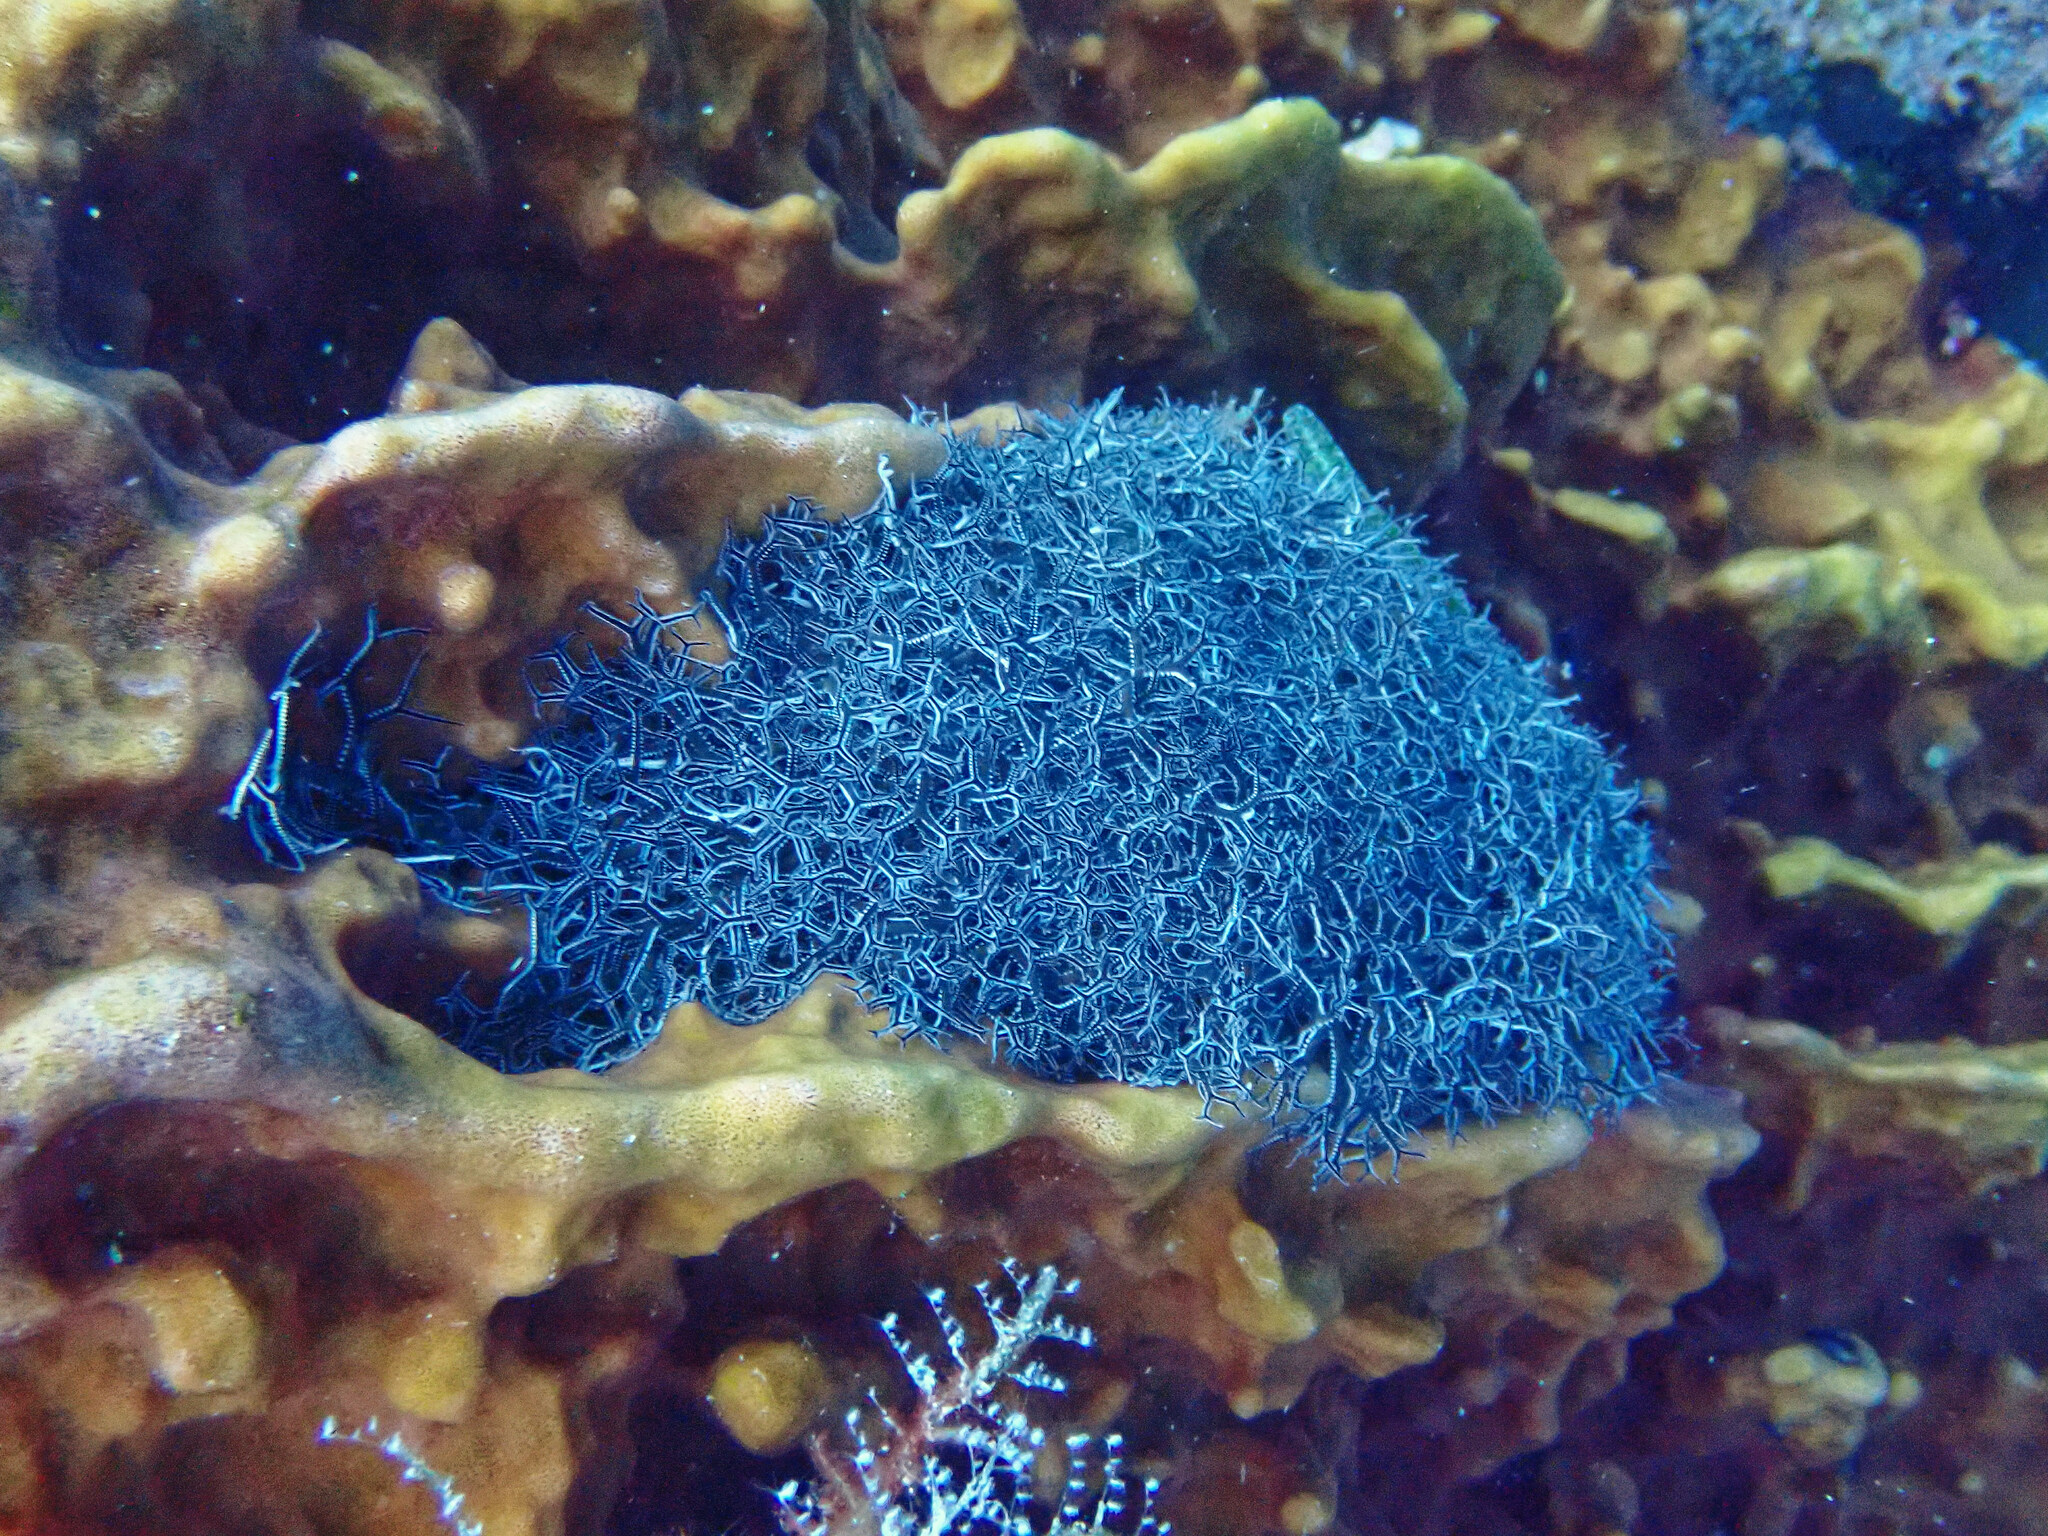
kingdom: Animalia
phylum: Echinodermata
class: Ophiuroidea
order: Euryalida
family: Gorgonocephalidae
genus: Astrophyton
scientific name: Astrophyton muricatum
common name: Basket starfish
